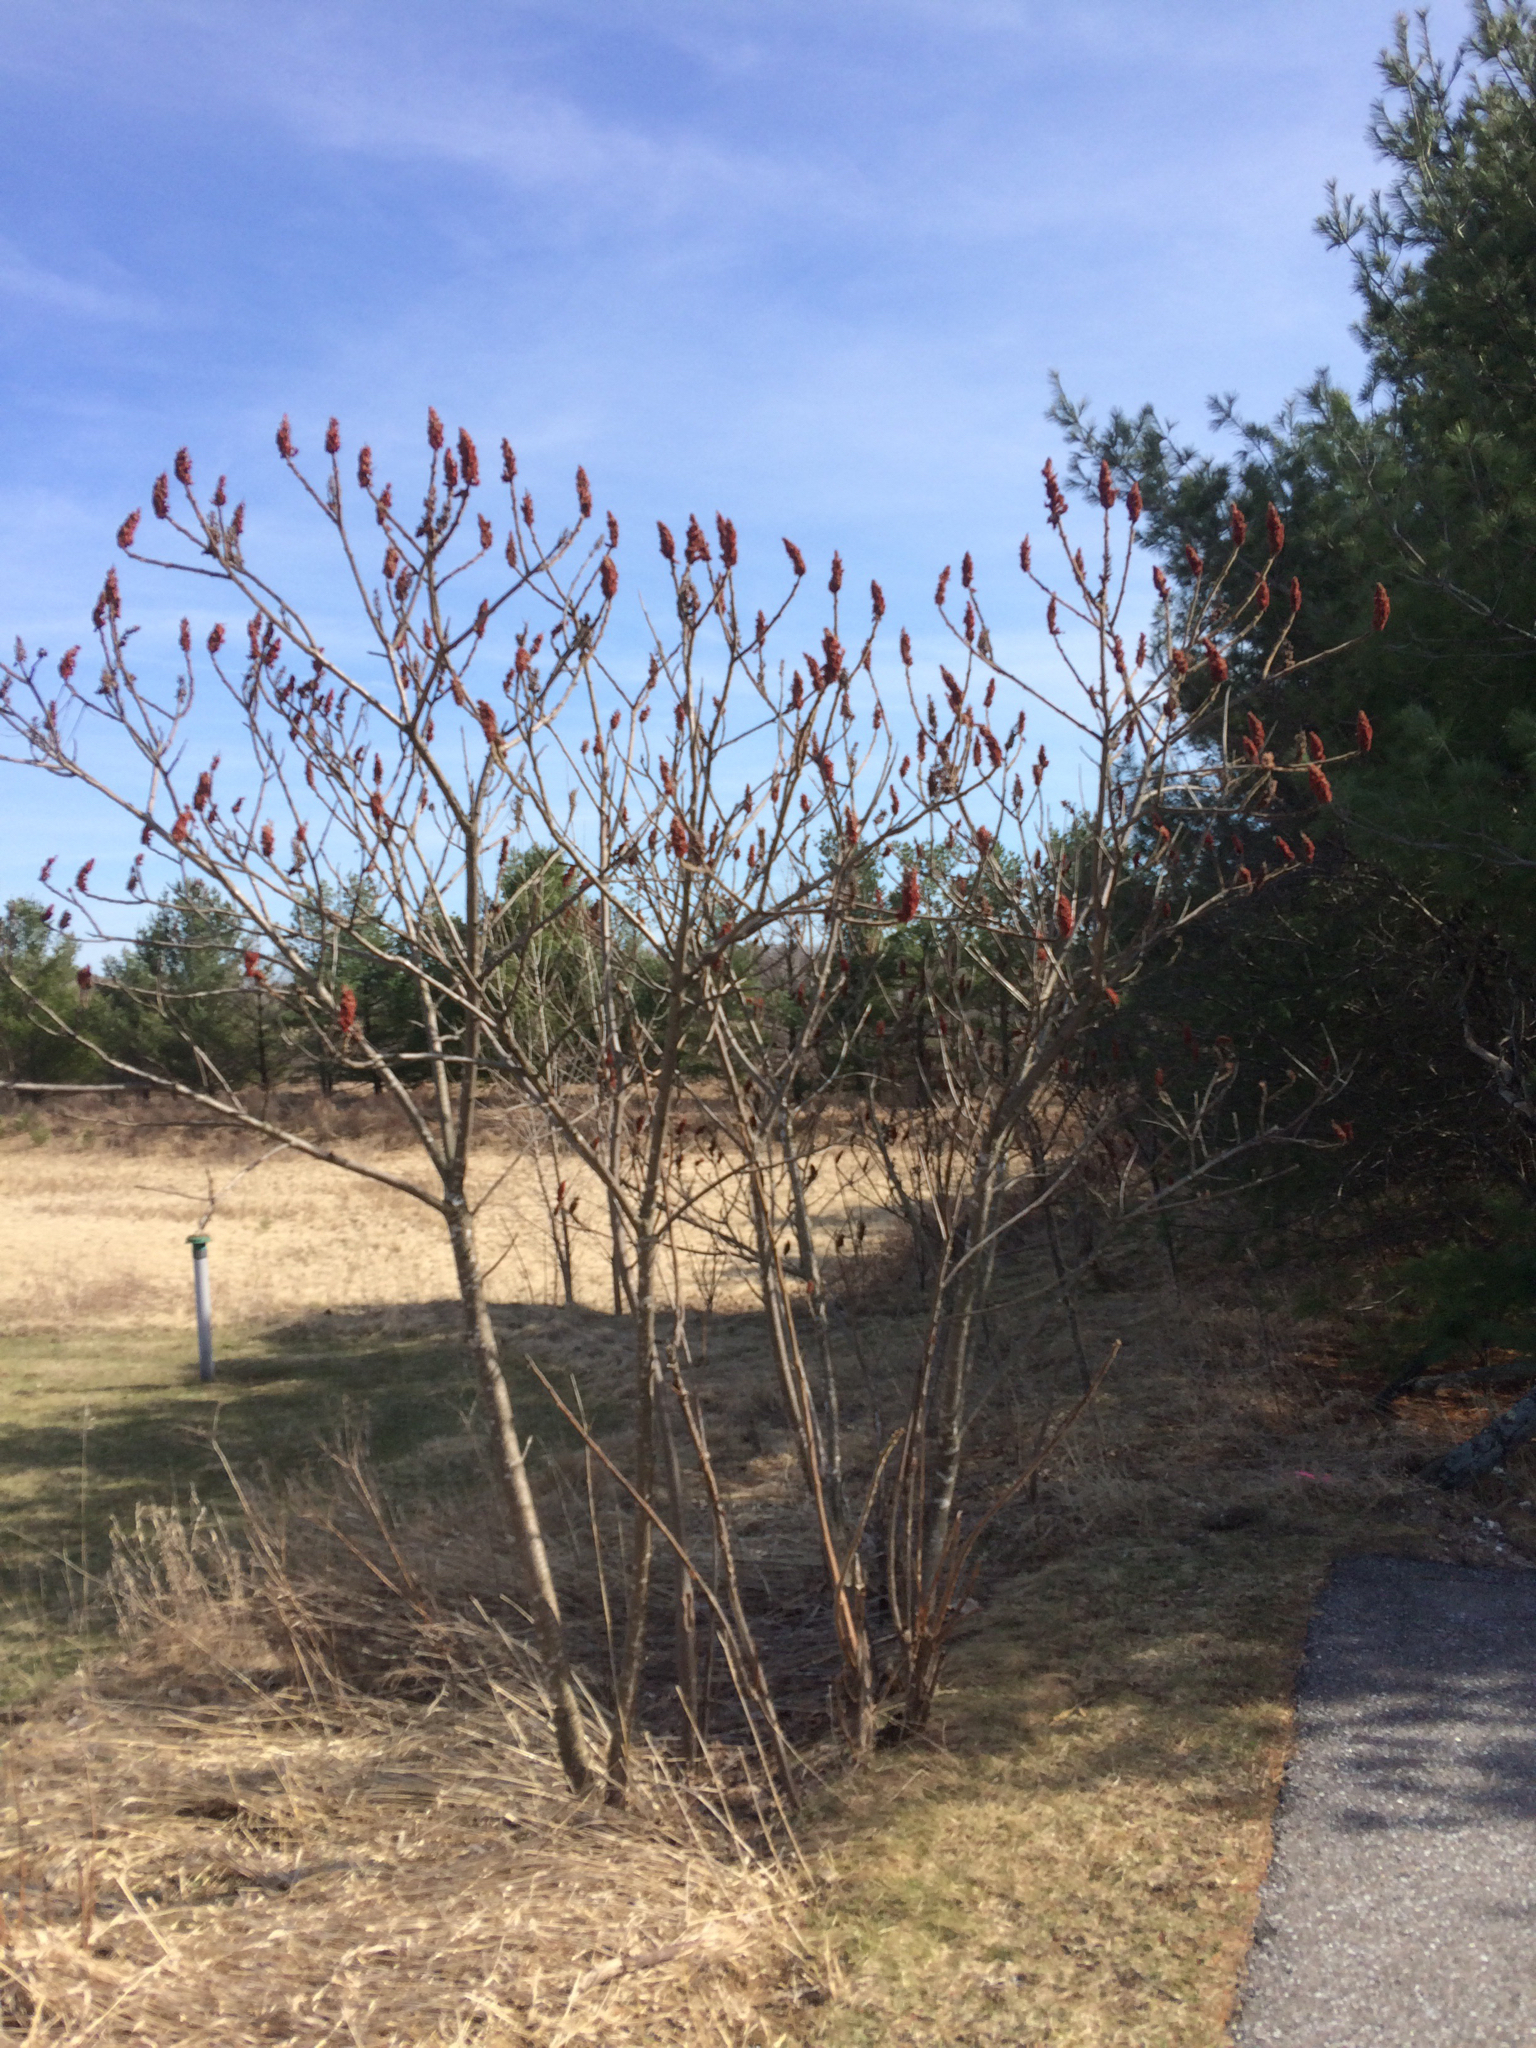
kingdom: Plantae
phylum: Tracheophyta
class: Magnoliopsida
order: Sapindales
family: Anacardiaceae
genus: Rhus
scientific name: Rhus typhina
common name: Staghorn sumac
